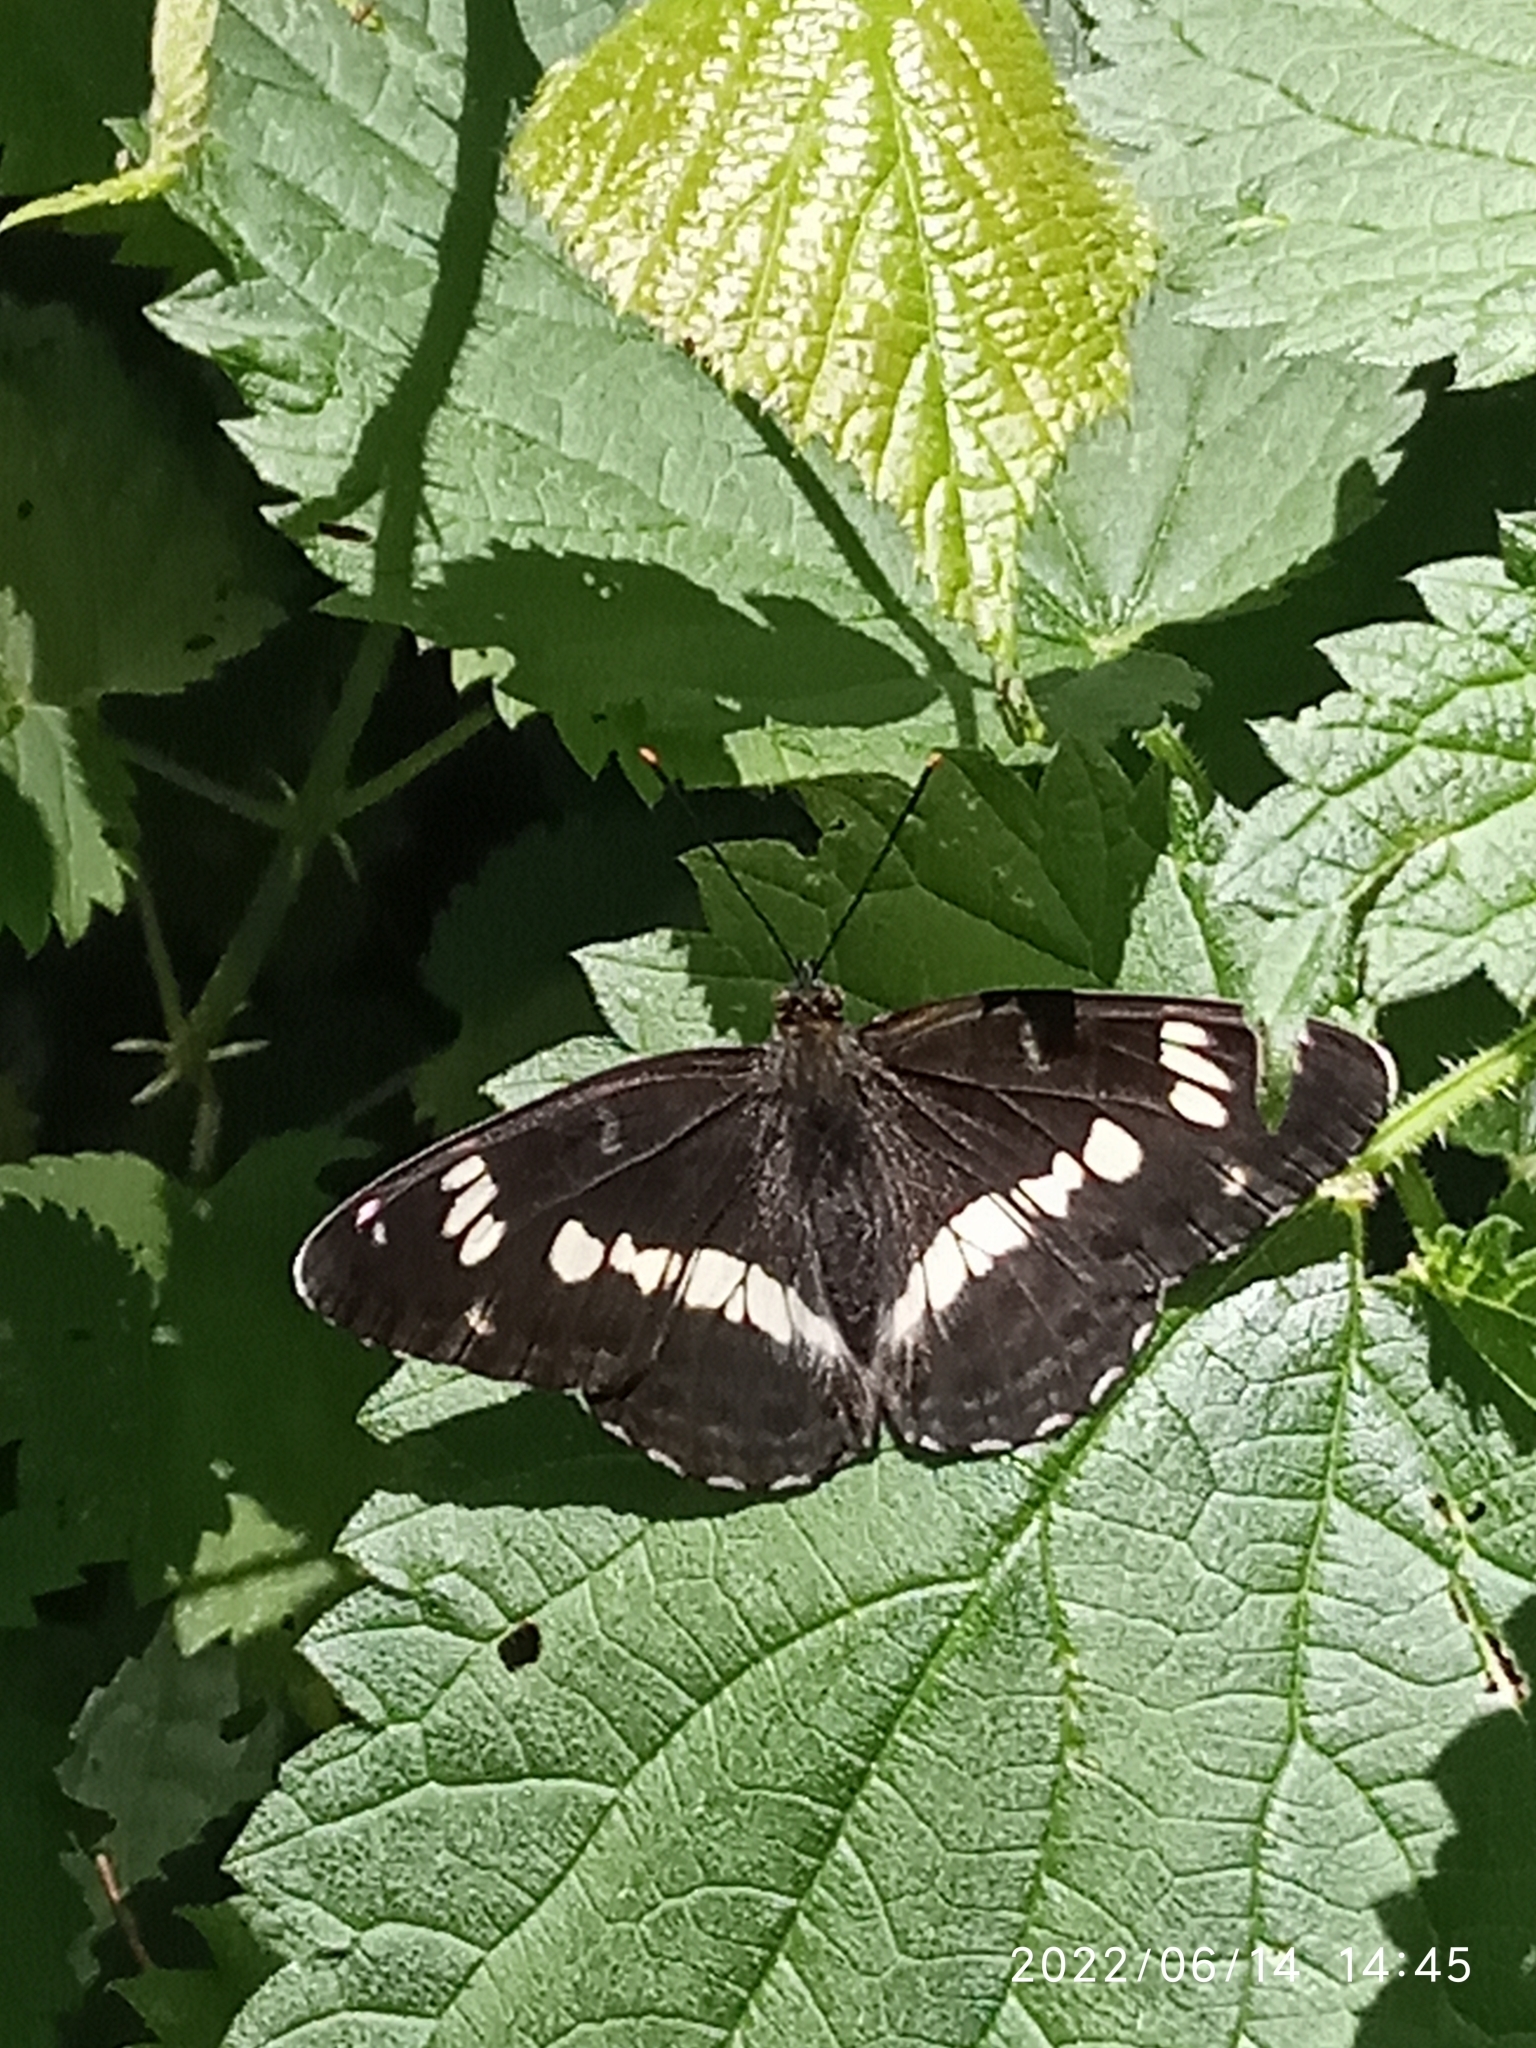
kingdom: Animalia
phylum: Arthropoda
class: Insecta
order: Lepidoptera
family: Nymphalidae
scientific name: Nymphalidae
